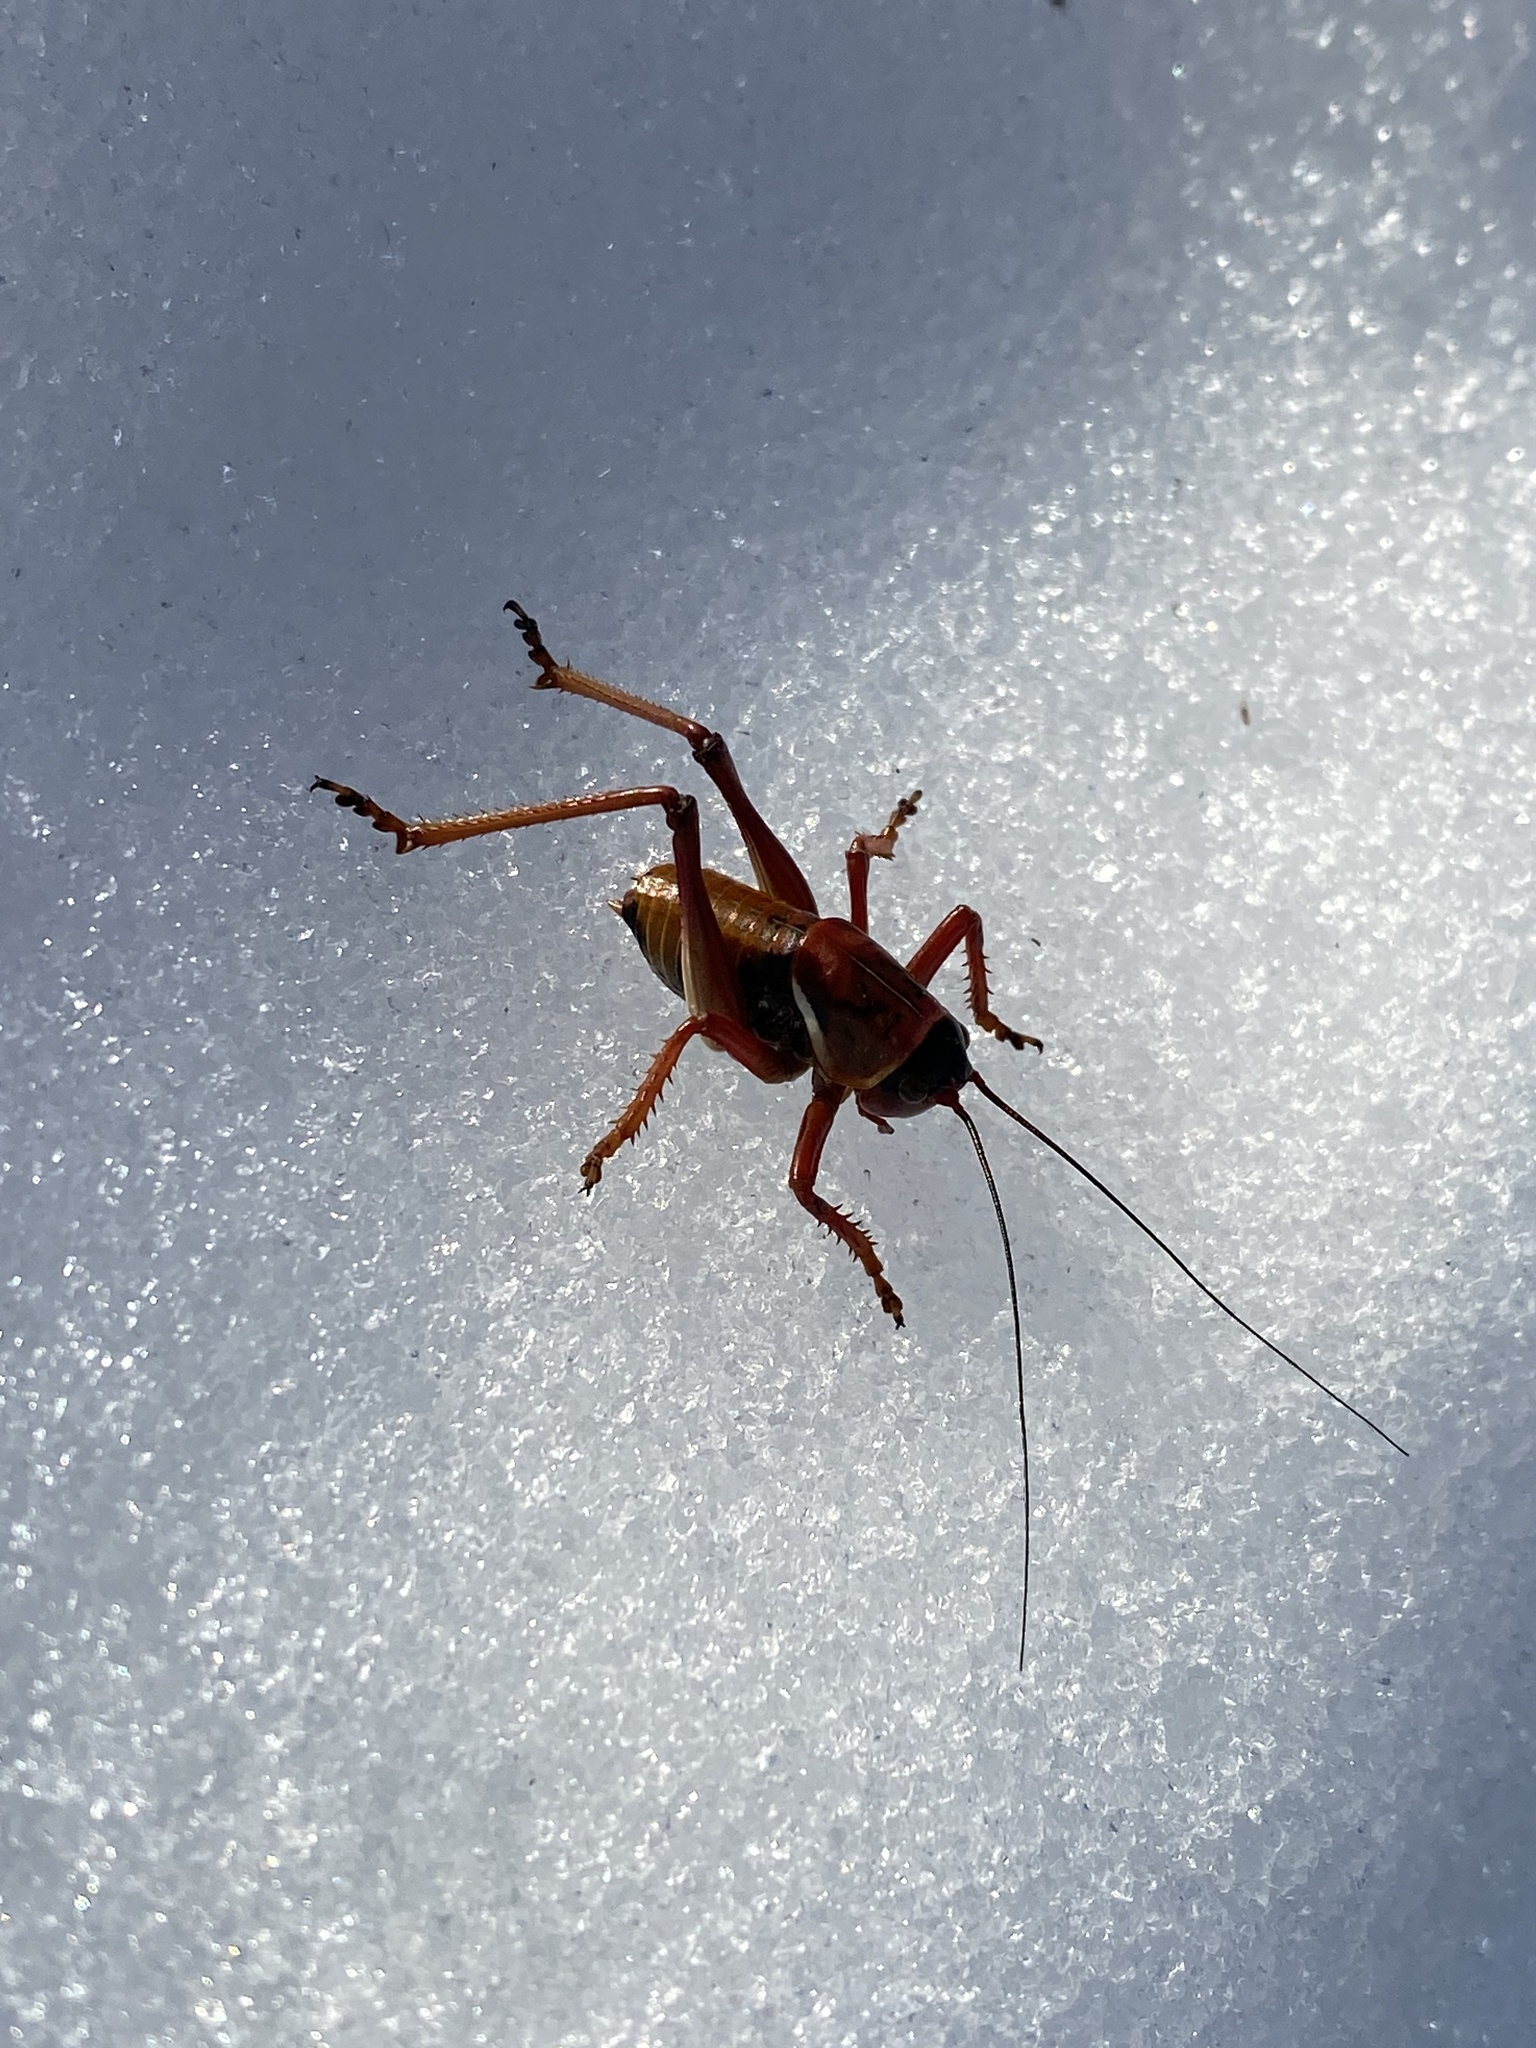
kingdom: Animalia
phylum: Arthropoda
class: Insecta
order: Orthoptera
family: Tettigoniidae
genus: Anabrus
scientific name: Anabrus simplex
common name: Mormon cricket
